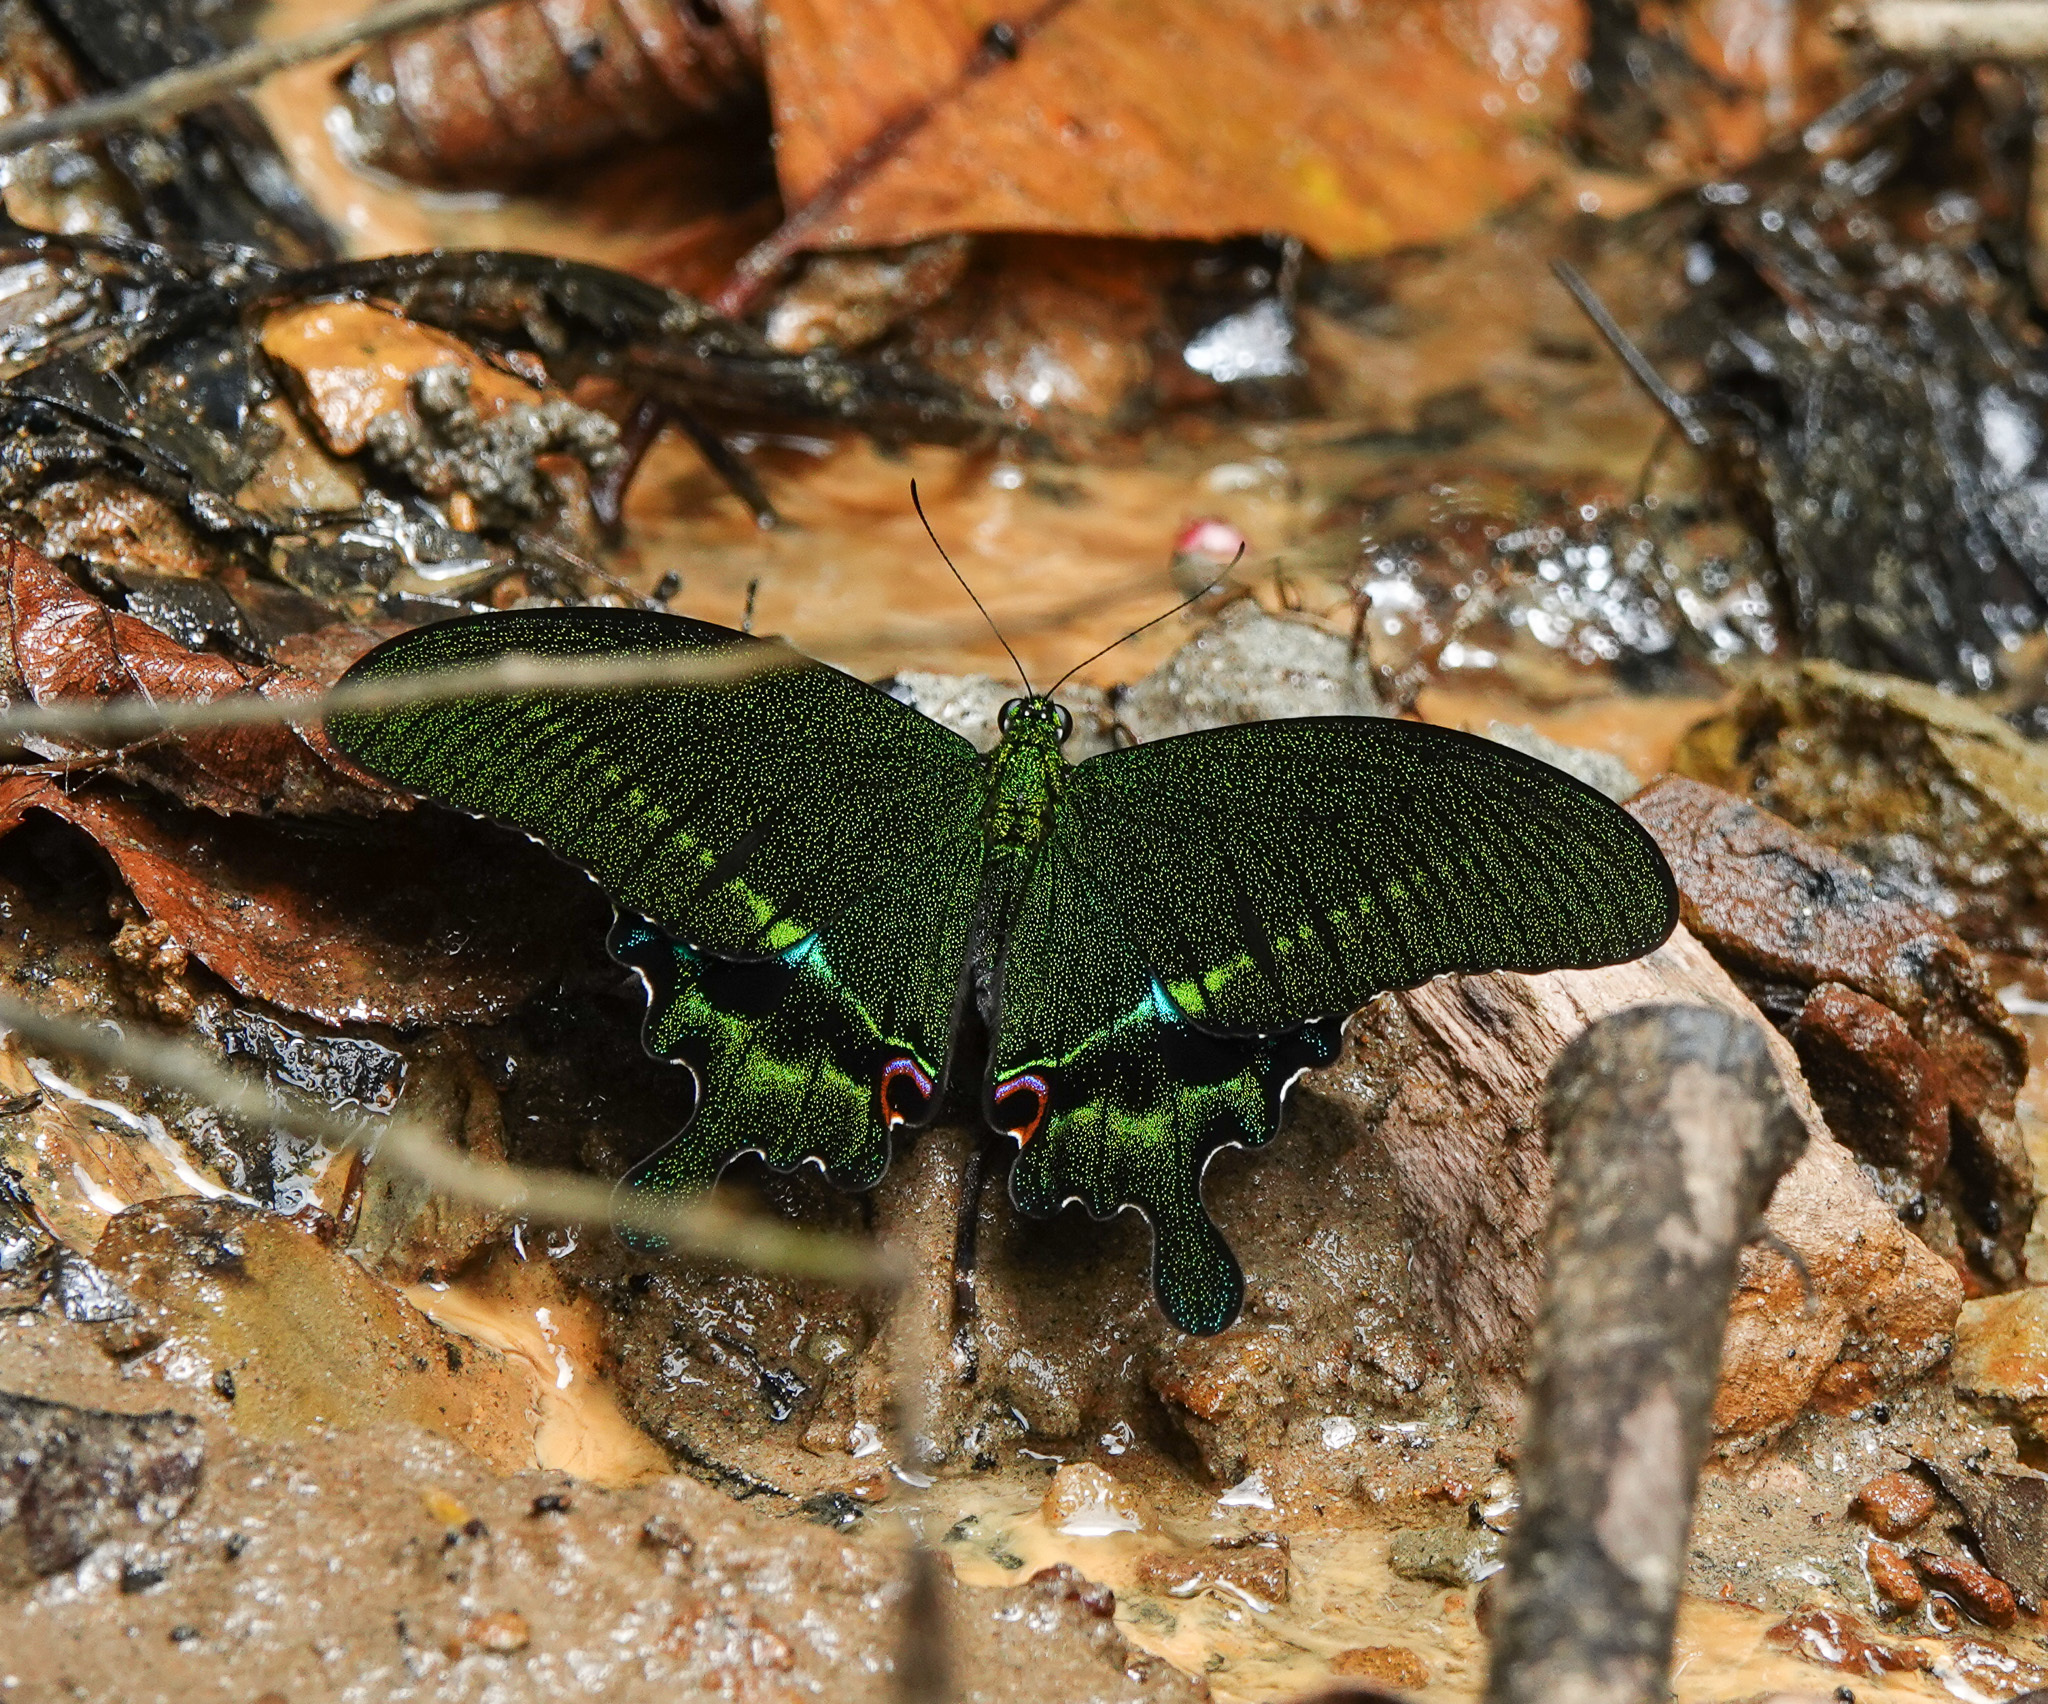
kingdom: Animalia
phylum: Arthropoda
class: Insecta
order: Lepidoptera
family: Papilionidae
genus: Papilio
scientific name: Papilio paris
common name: Paris peacock
